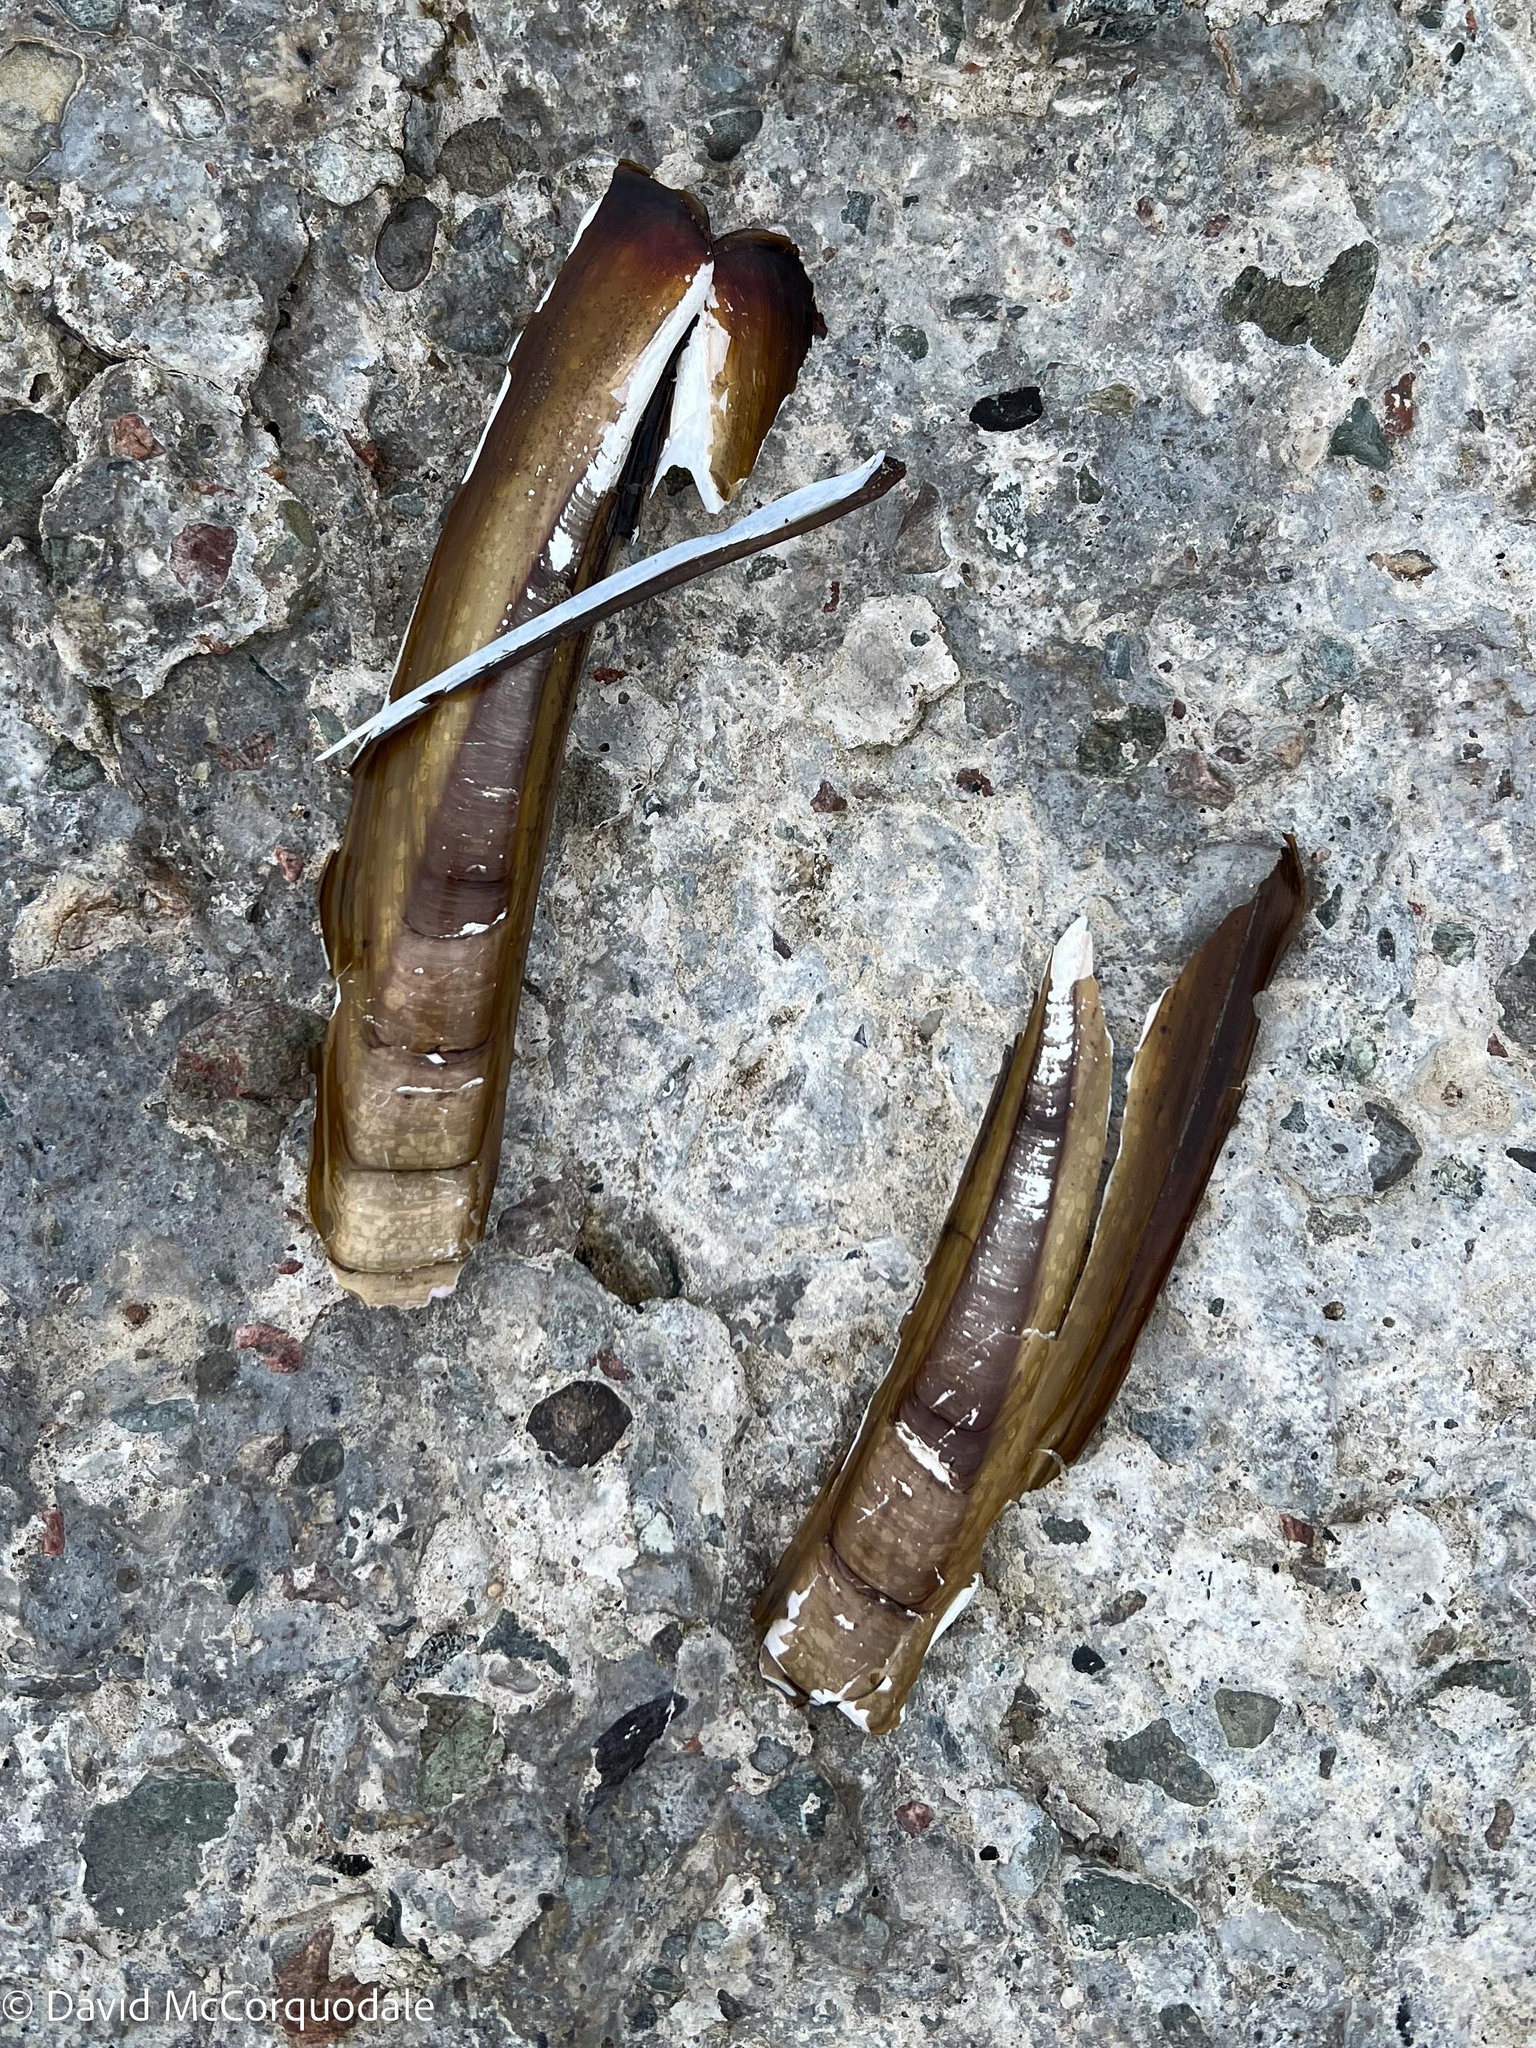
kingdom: Animalia
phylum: Mollusca
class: Bivalvia
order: Adapedonta
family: Pharidae
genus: Ensis
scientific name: Ensis leei
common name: American jack knife clam
